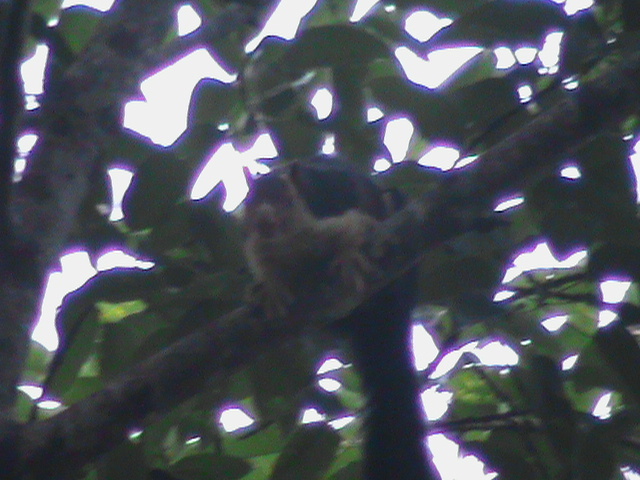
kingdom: Animalia
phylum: Chordata
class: Mammalia
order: Rodentia
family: Sciuridae
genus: Ratufa
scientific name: Ratufa indica
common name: Indian giant squirrel
